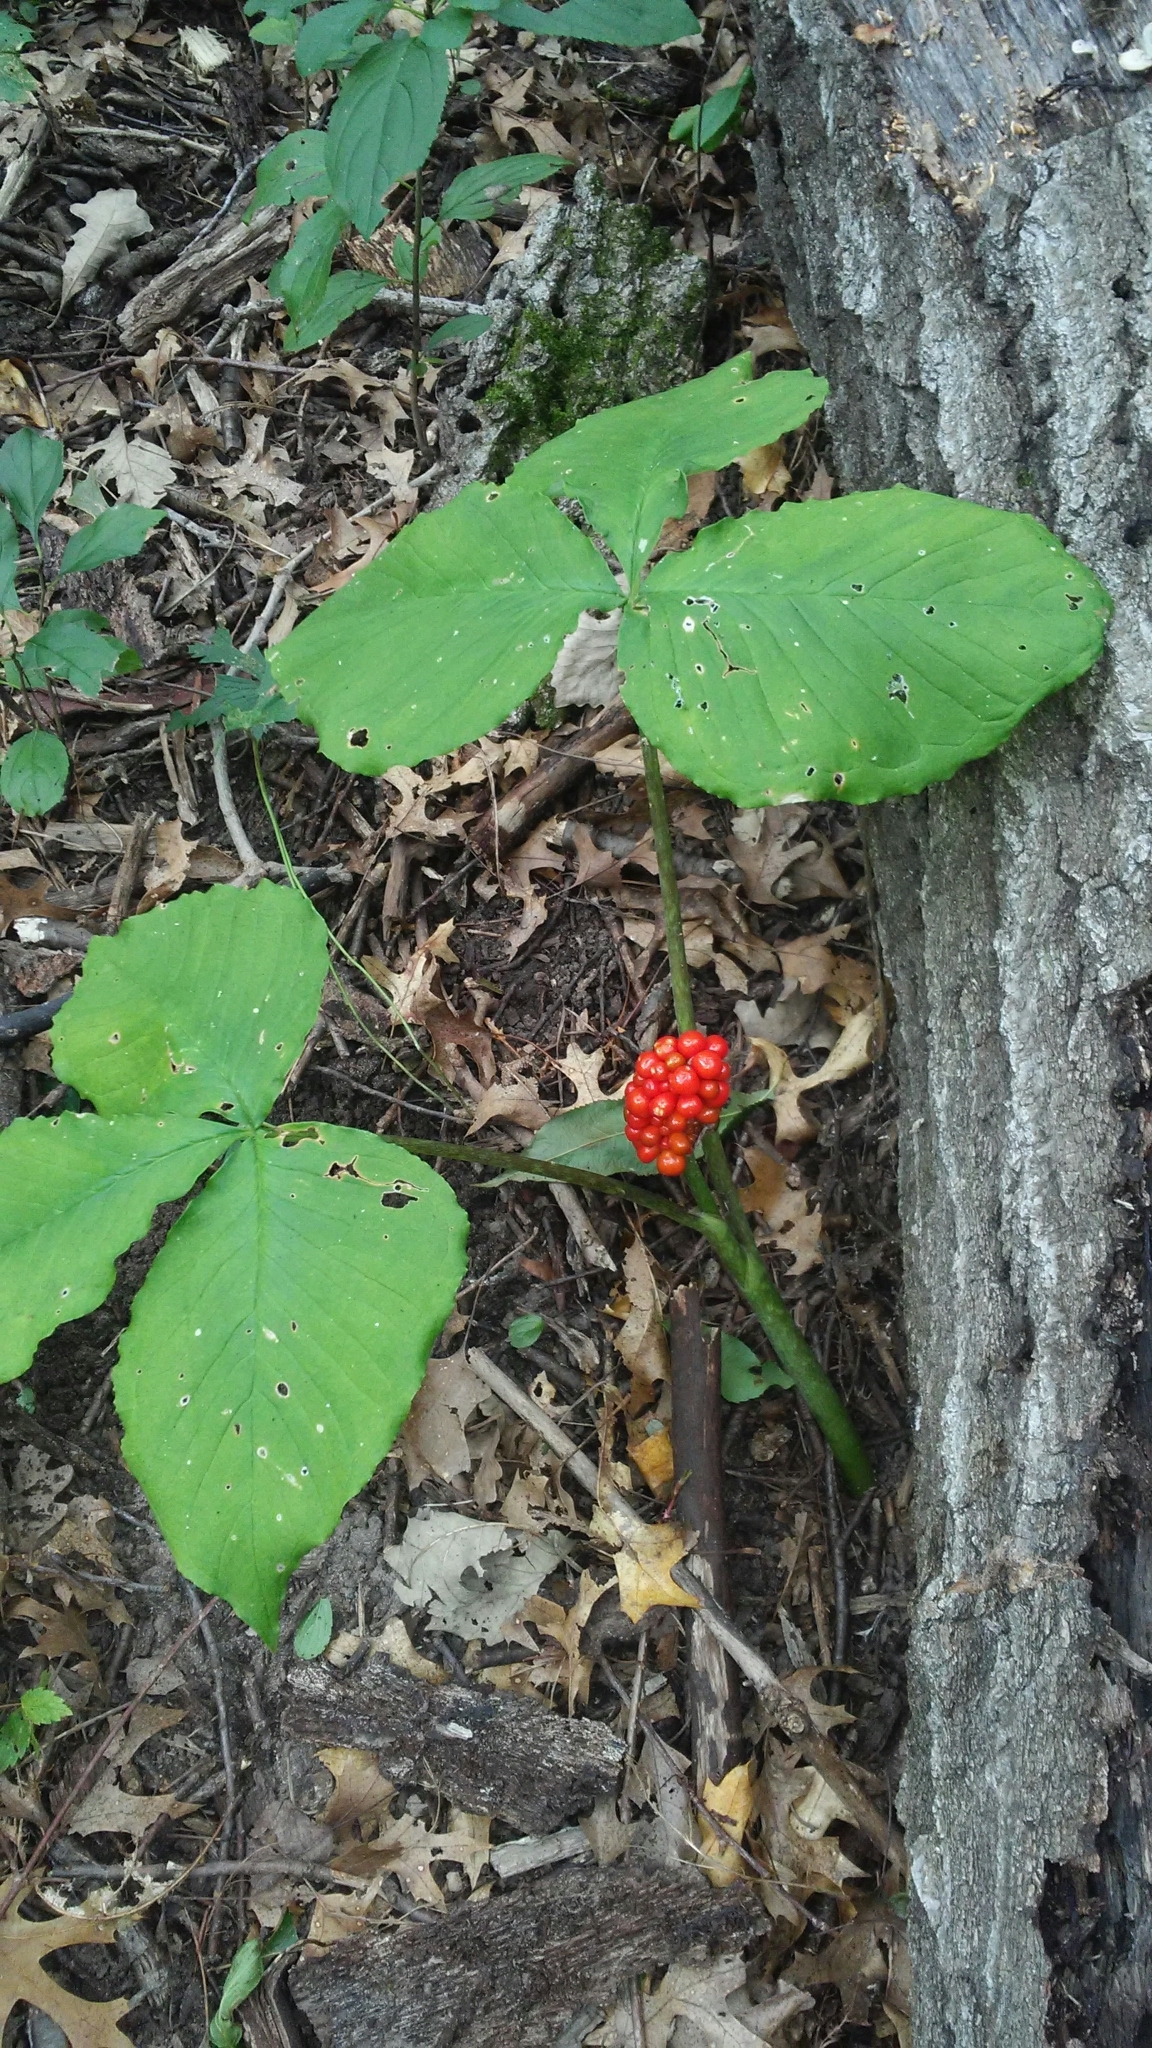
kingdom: Plantae
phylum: Tracheophyta
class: Liliopsida
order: Alismatales
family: Araceae
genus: Arisaema
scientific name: Arisaema triphyllum
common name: Jack-in-the-pulpit
